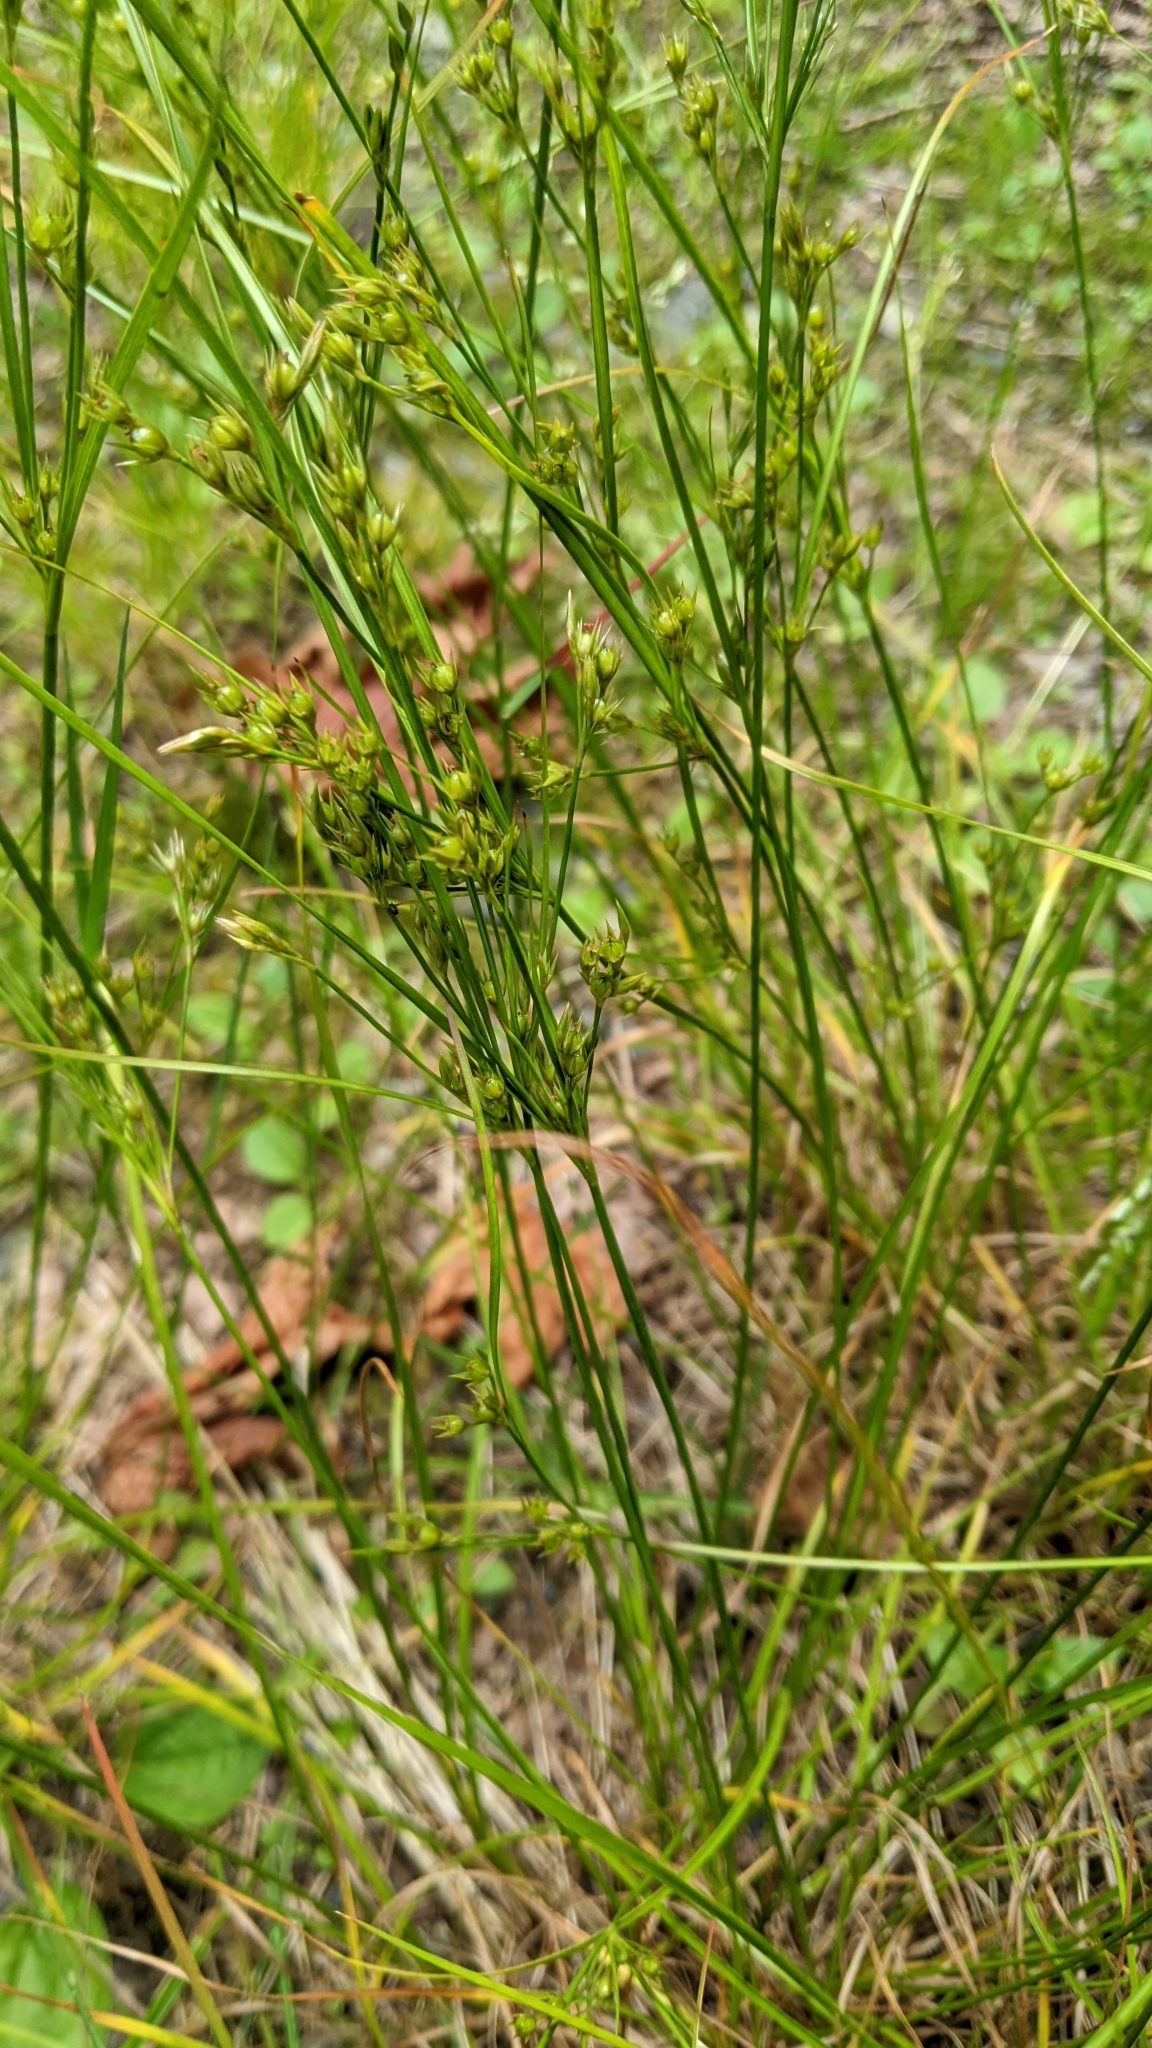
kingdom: Plantae
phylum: Tracheophyta
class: Liliopsida
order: Poales
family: Juncaceae
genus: Juncus
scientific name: Juncus tenuis
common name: Slender rush
